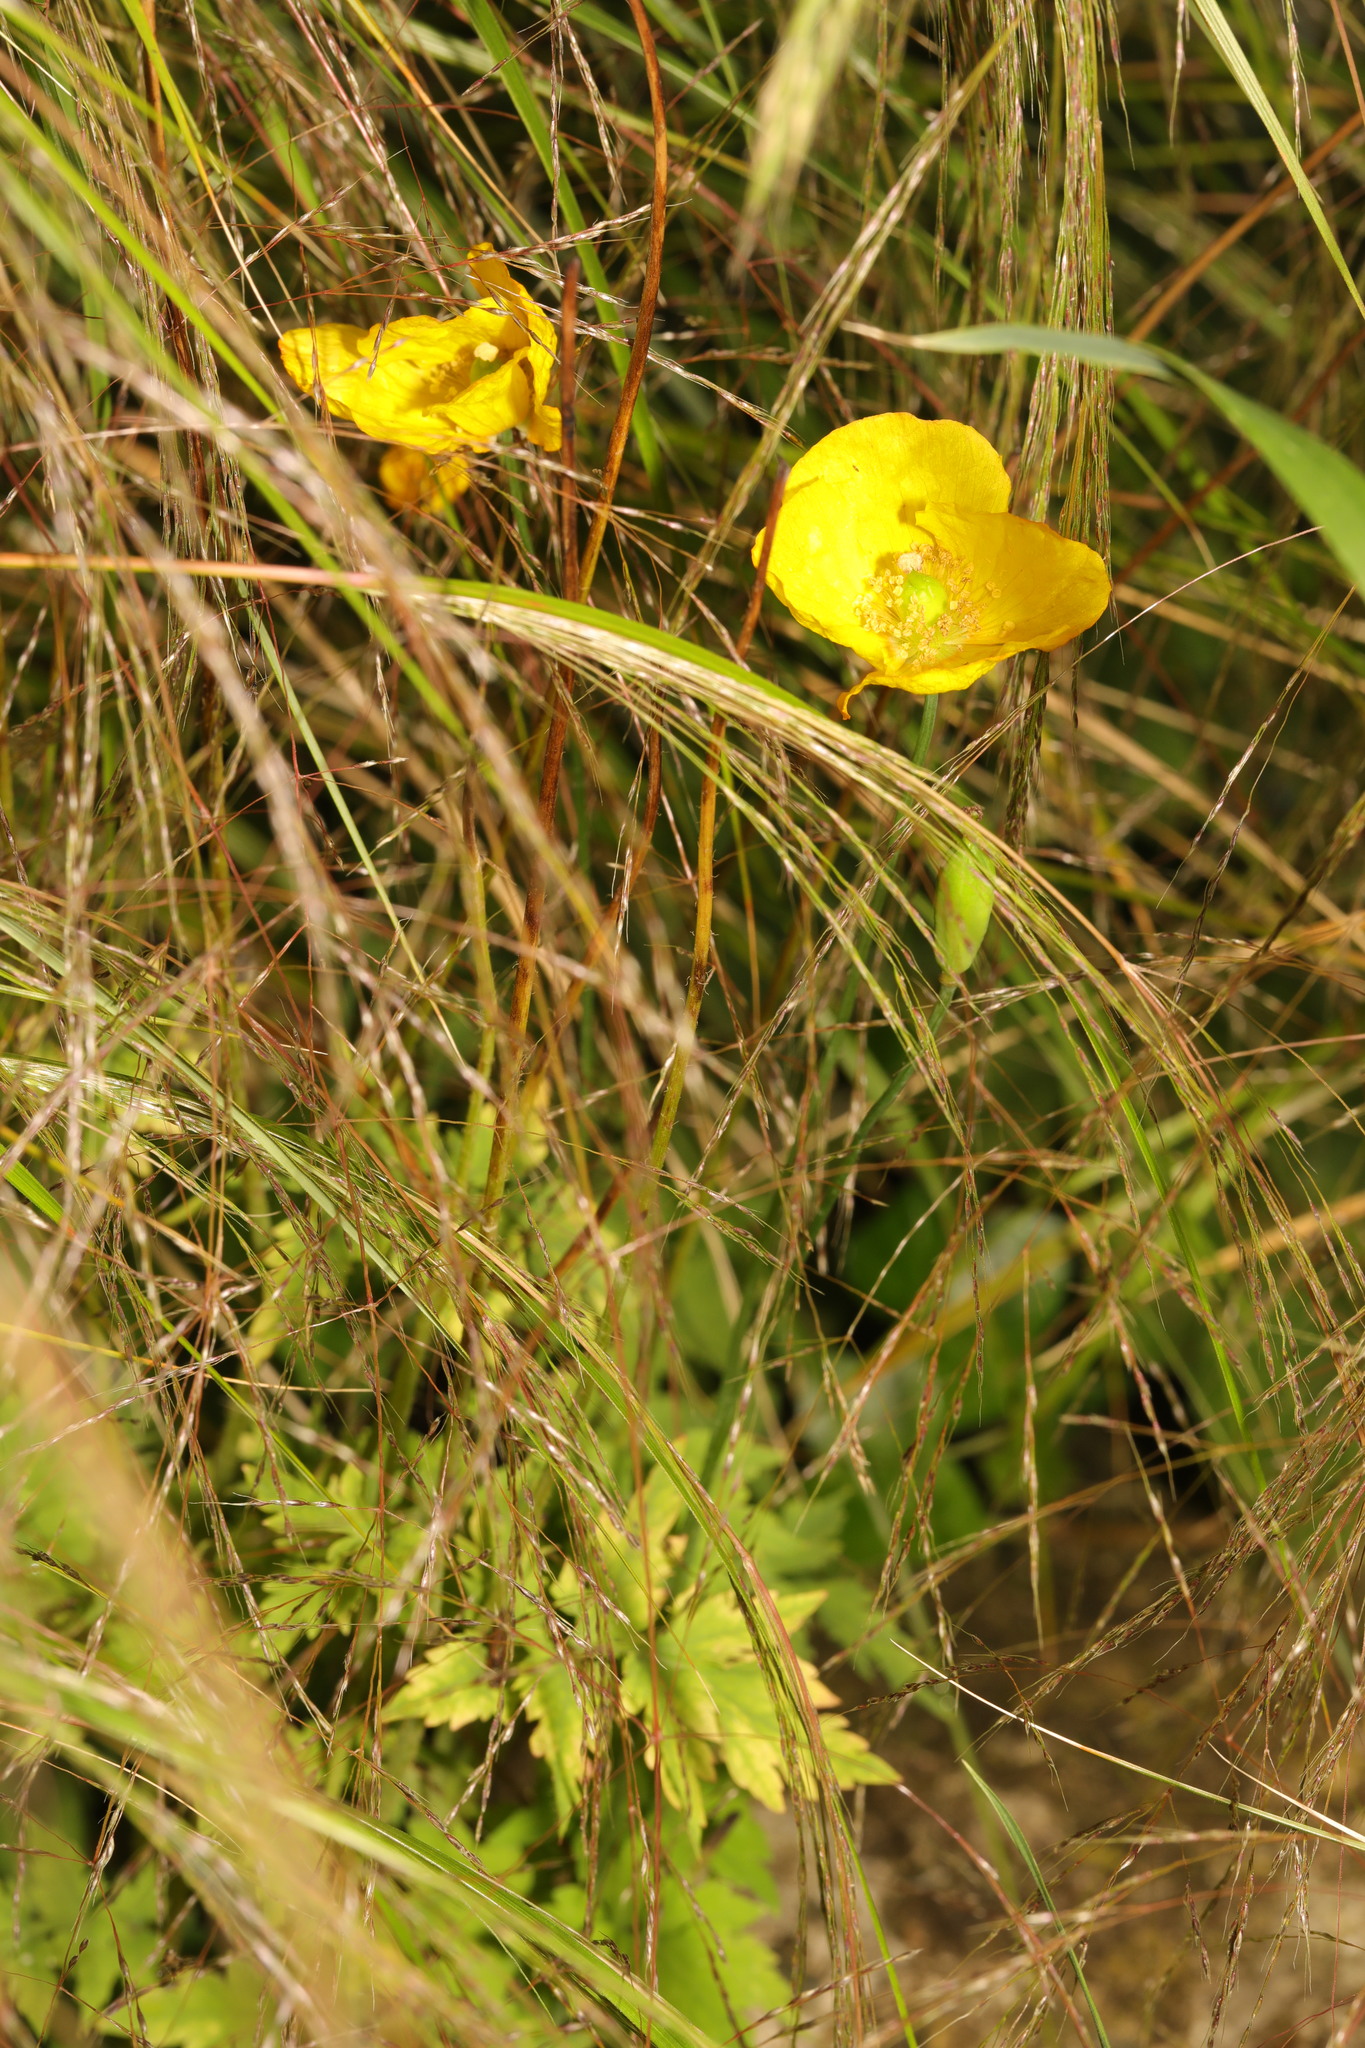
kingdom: Plantae
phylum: Tracheophyta
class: Magnoliopsida
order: Ranunculales
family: Papaveraceae
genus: Papaver
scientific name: Papaver cambricum
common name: Poppy
